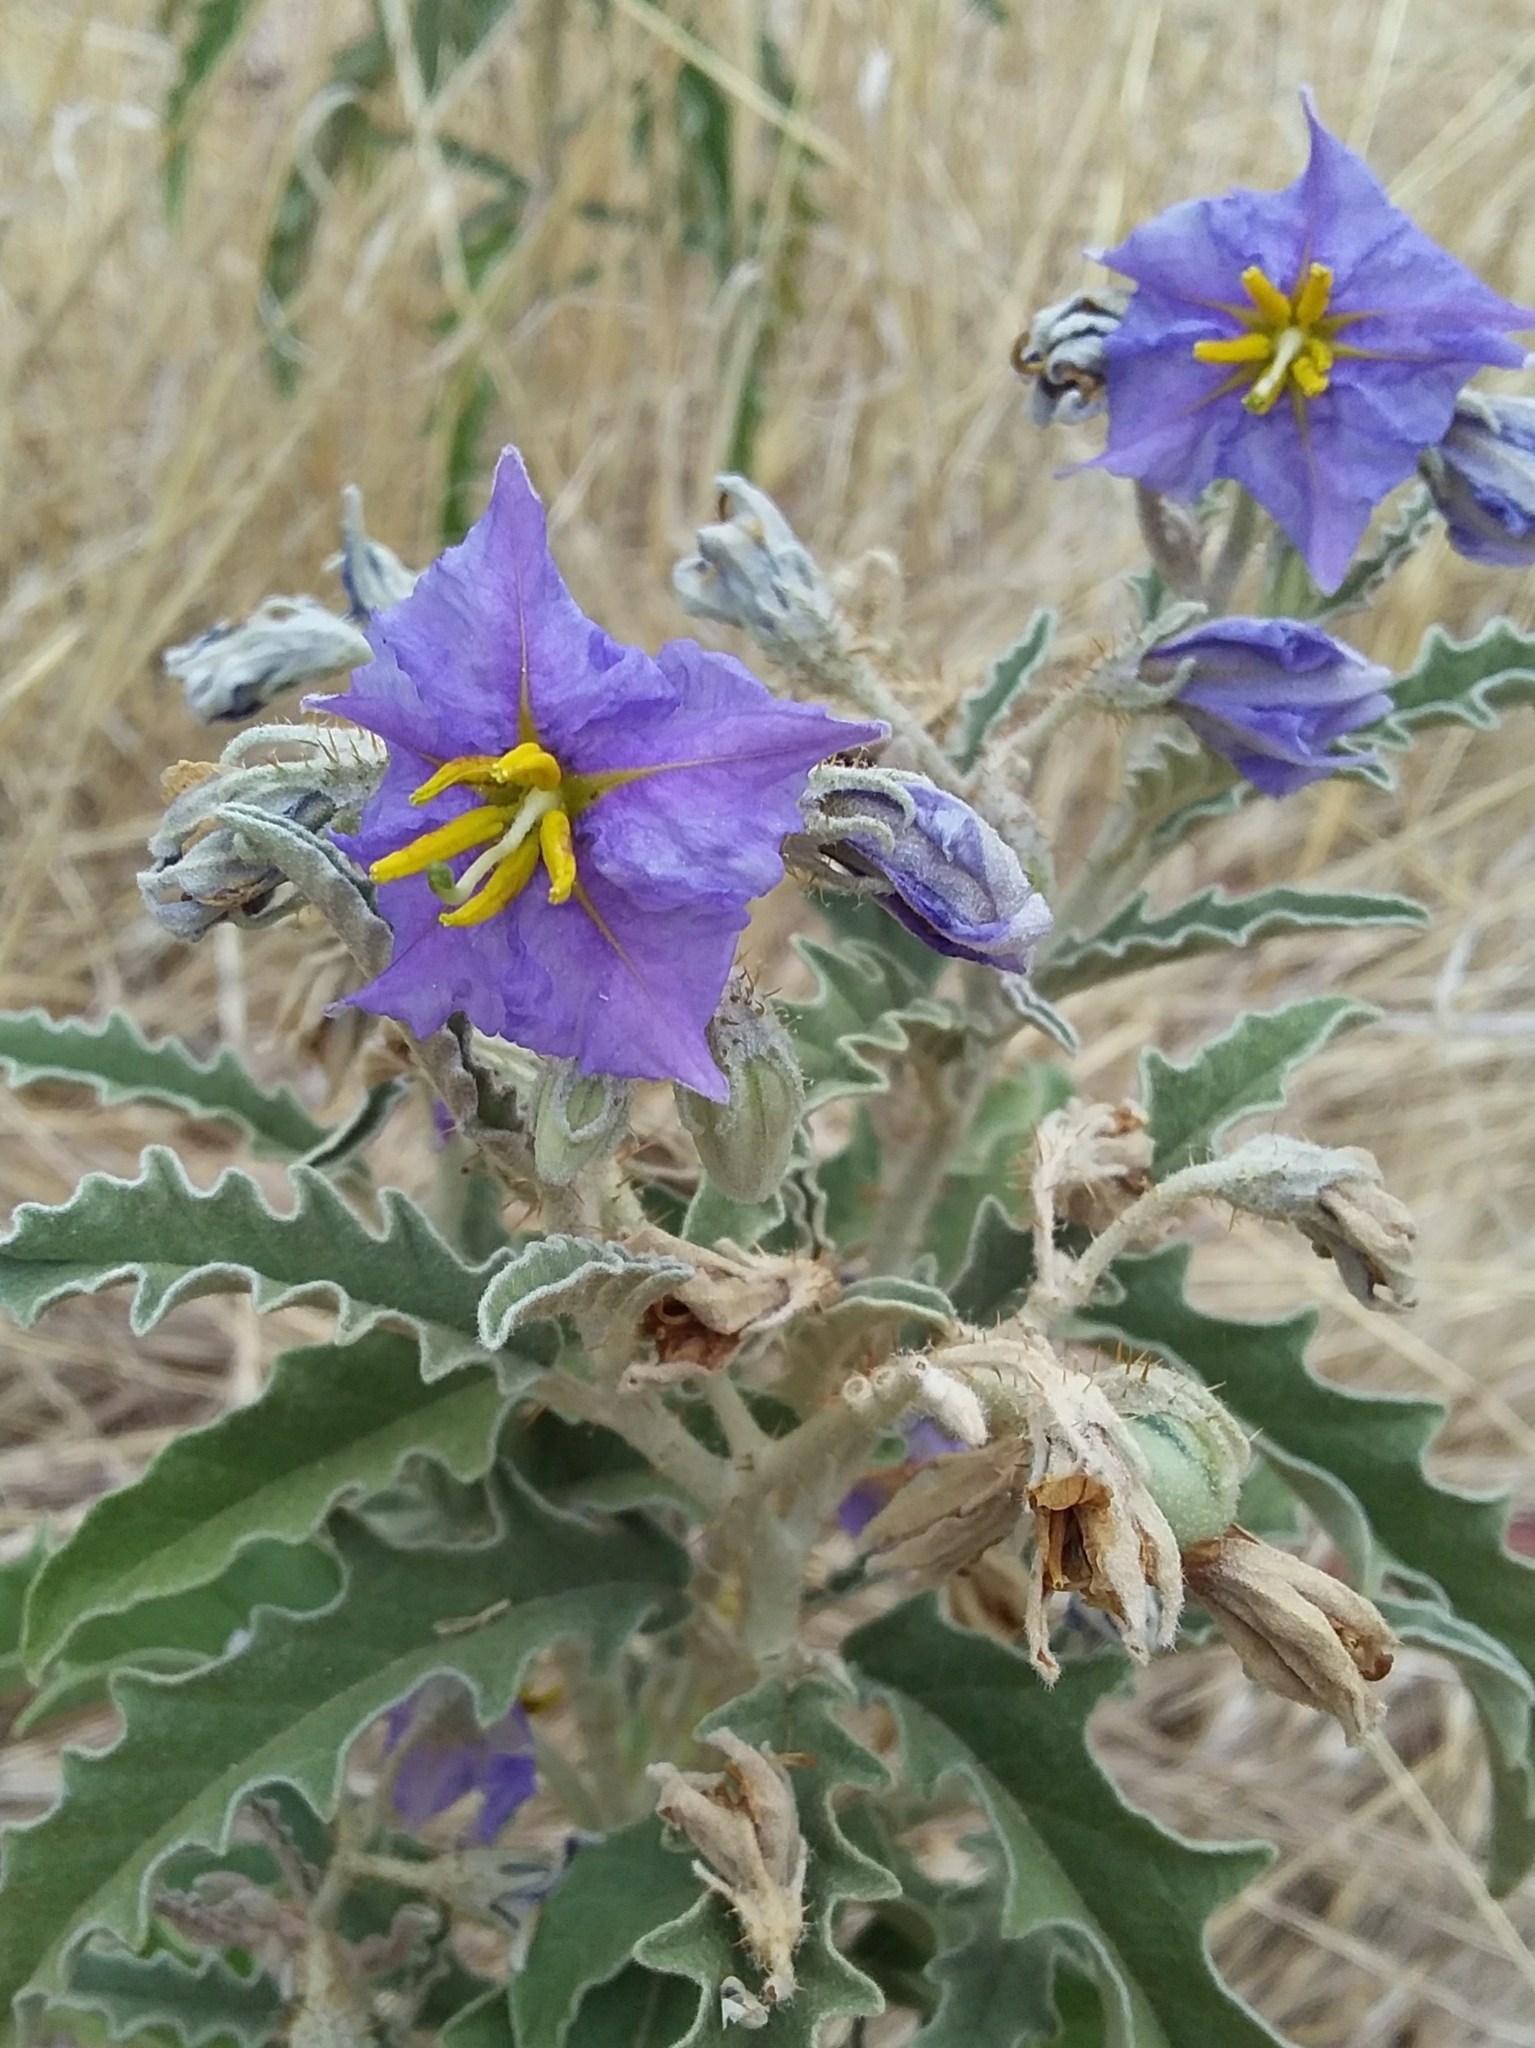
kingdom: Plantae
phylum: Tracheophyta
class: Magnoliopsida
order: Solanales
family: Solanaceae
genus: Solanum
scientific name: Solanum elaeagnifolium
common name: Silverleaf nightshade
